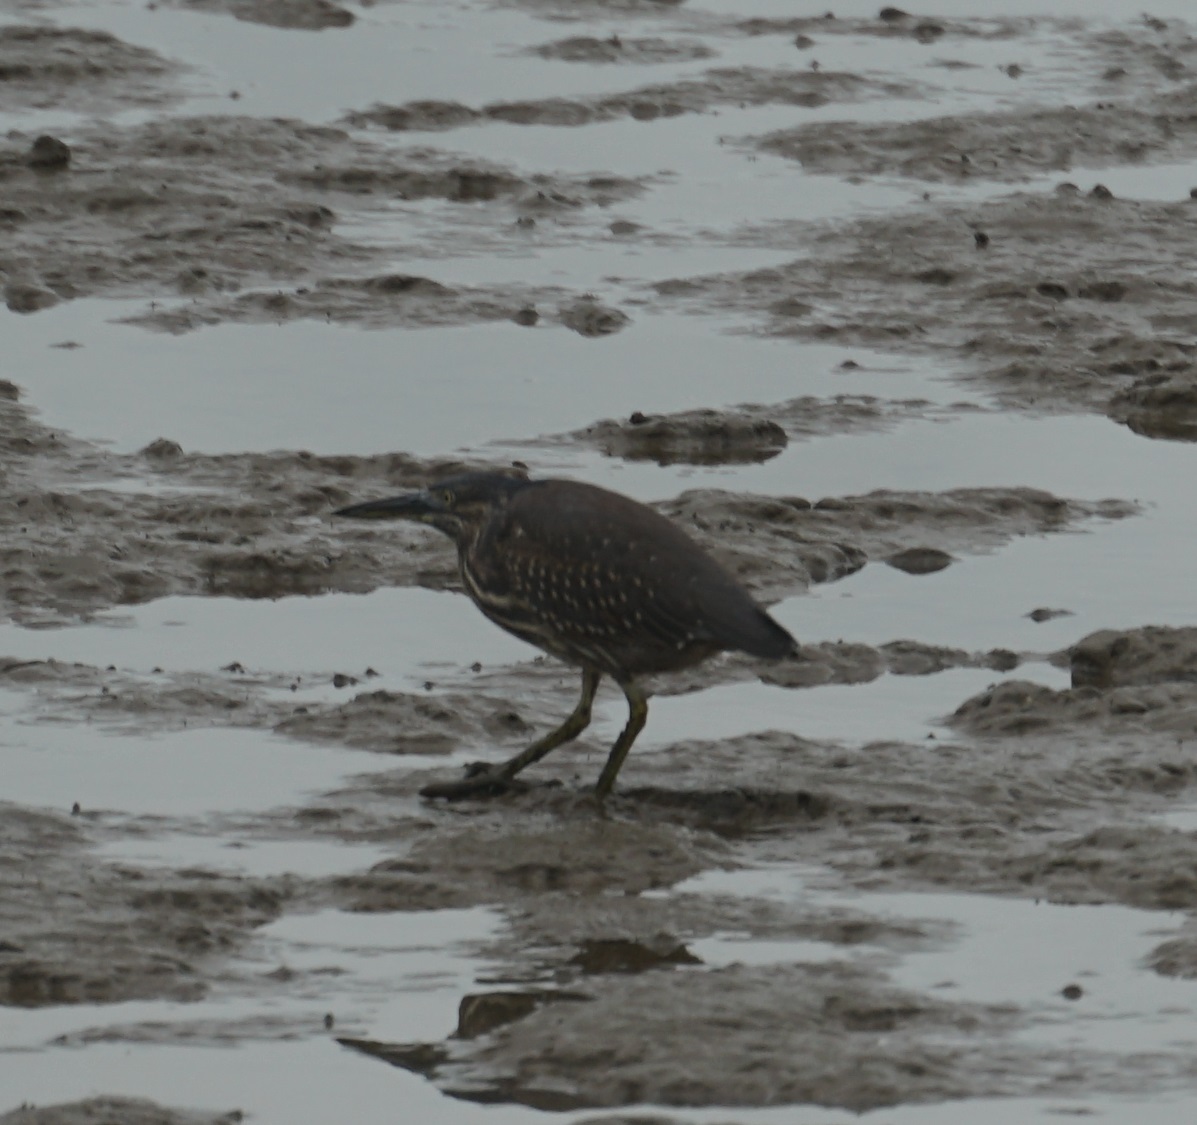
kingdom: Animalia
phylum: Chordata
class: Aves
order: Pelecaniformes
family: Ardeidae
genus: Butorides
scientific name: Butorides striata
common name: Striated heron
